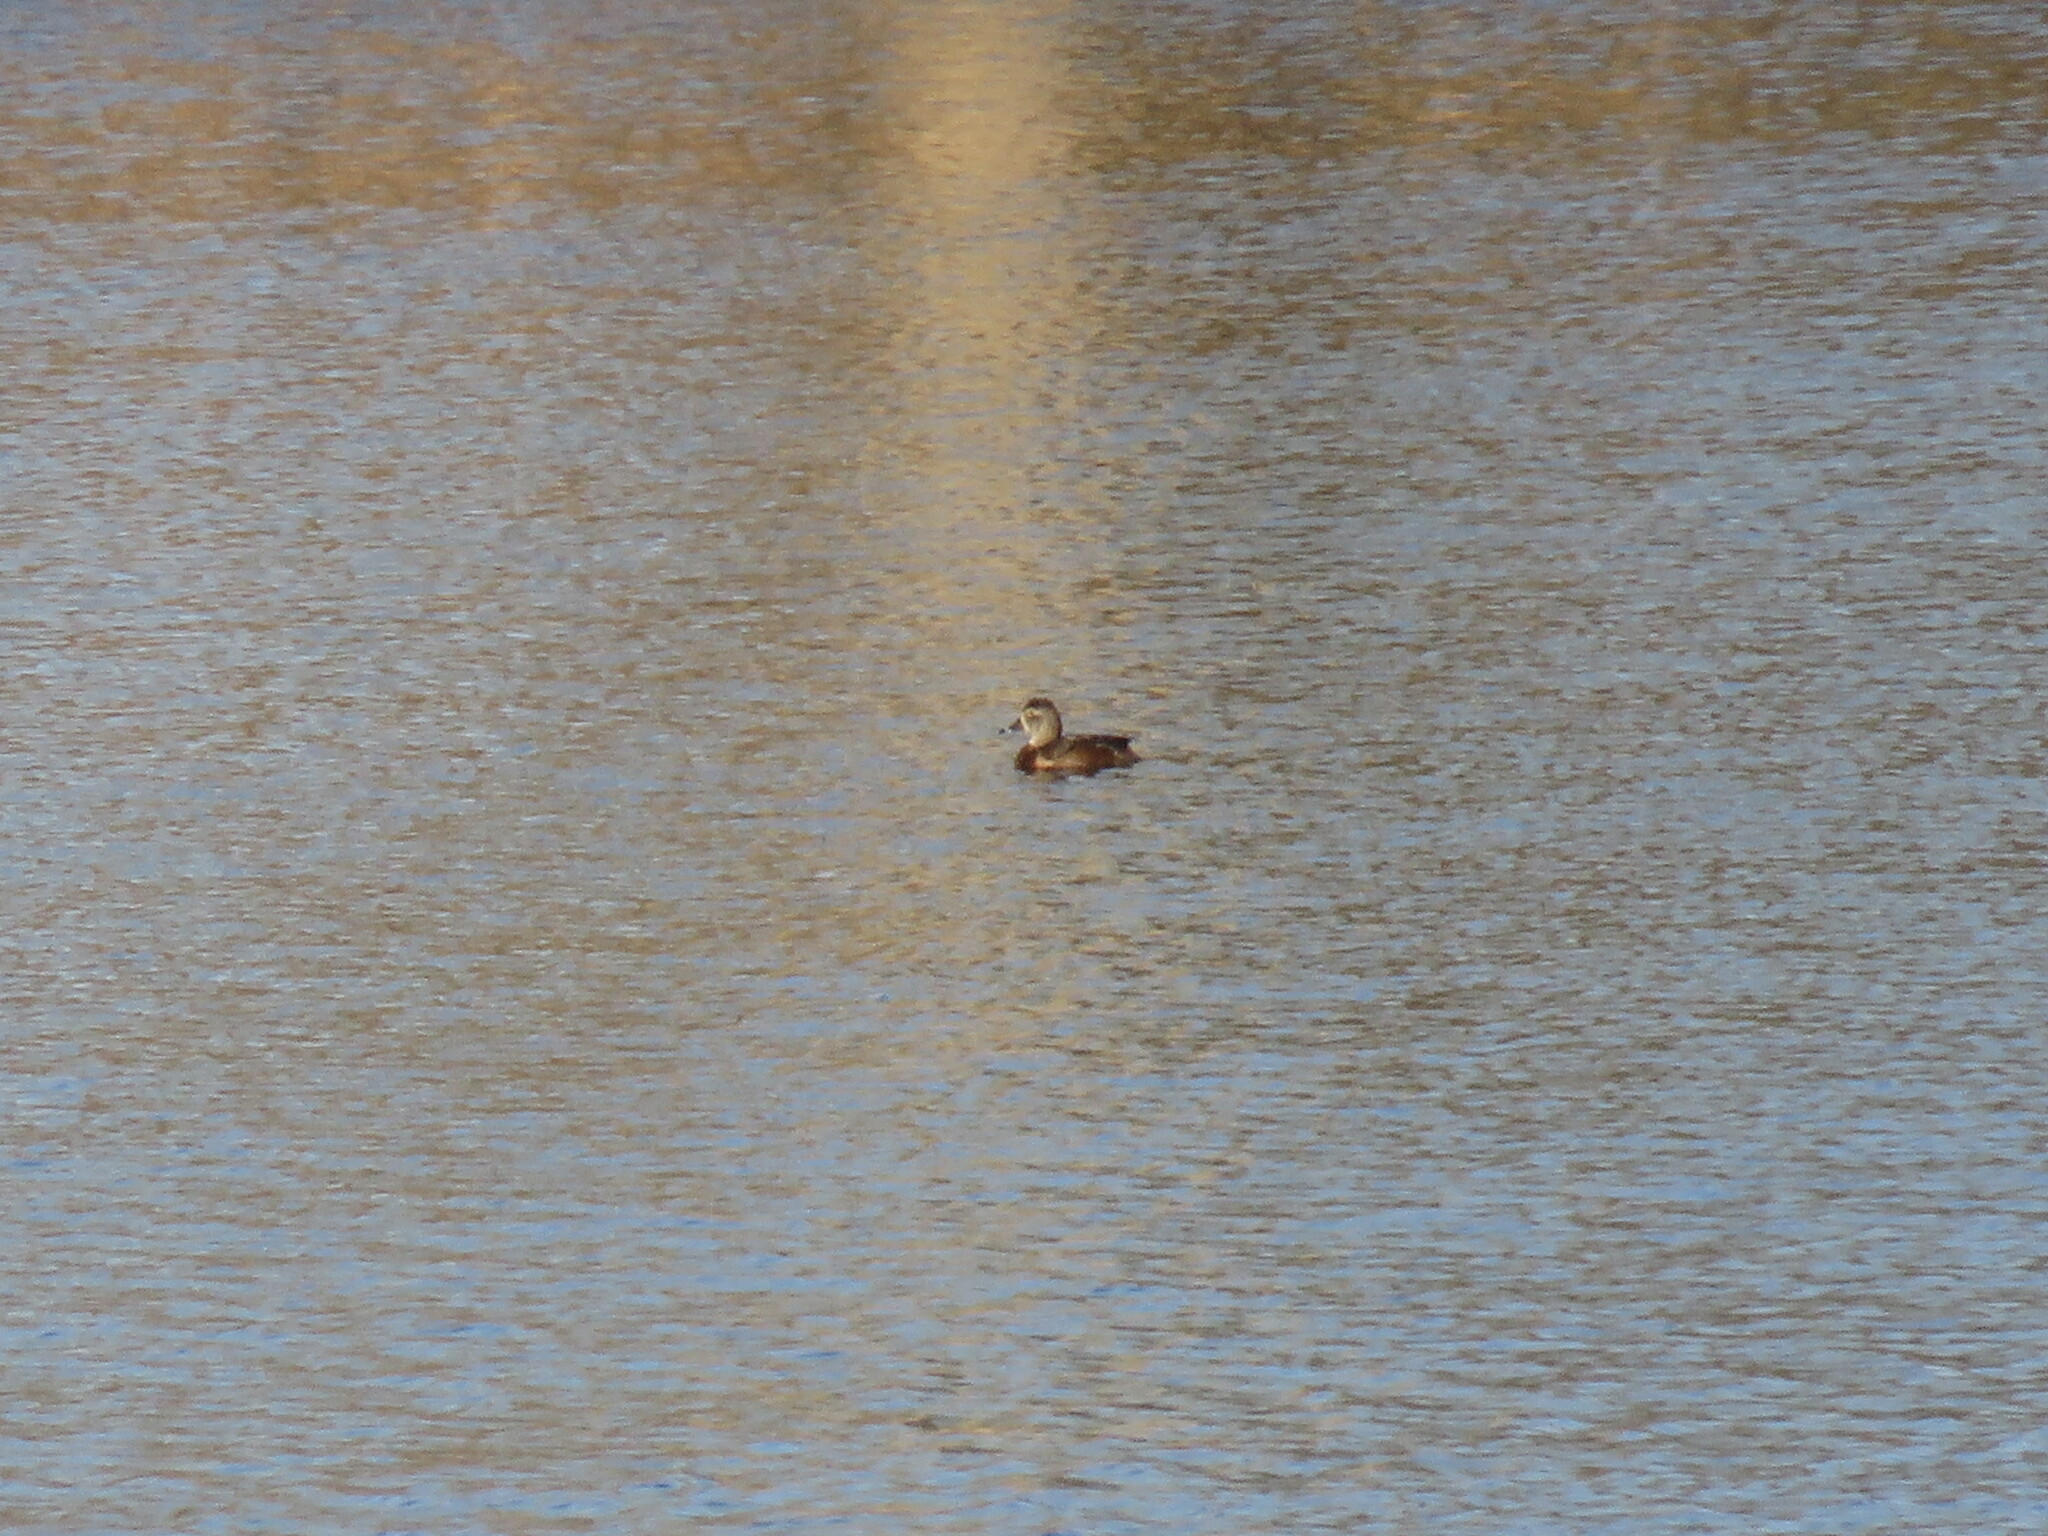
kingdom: Animalia
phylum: Chordata
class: Aves
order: Anseriformes
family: Anatidae
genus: Aythya
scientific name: Aythya collaris
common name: Ring-necked duck
